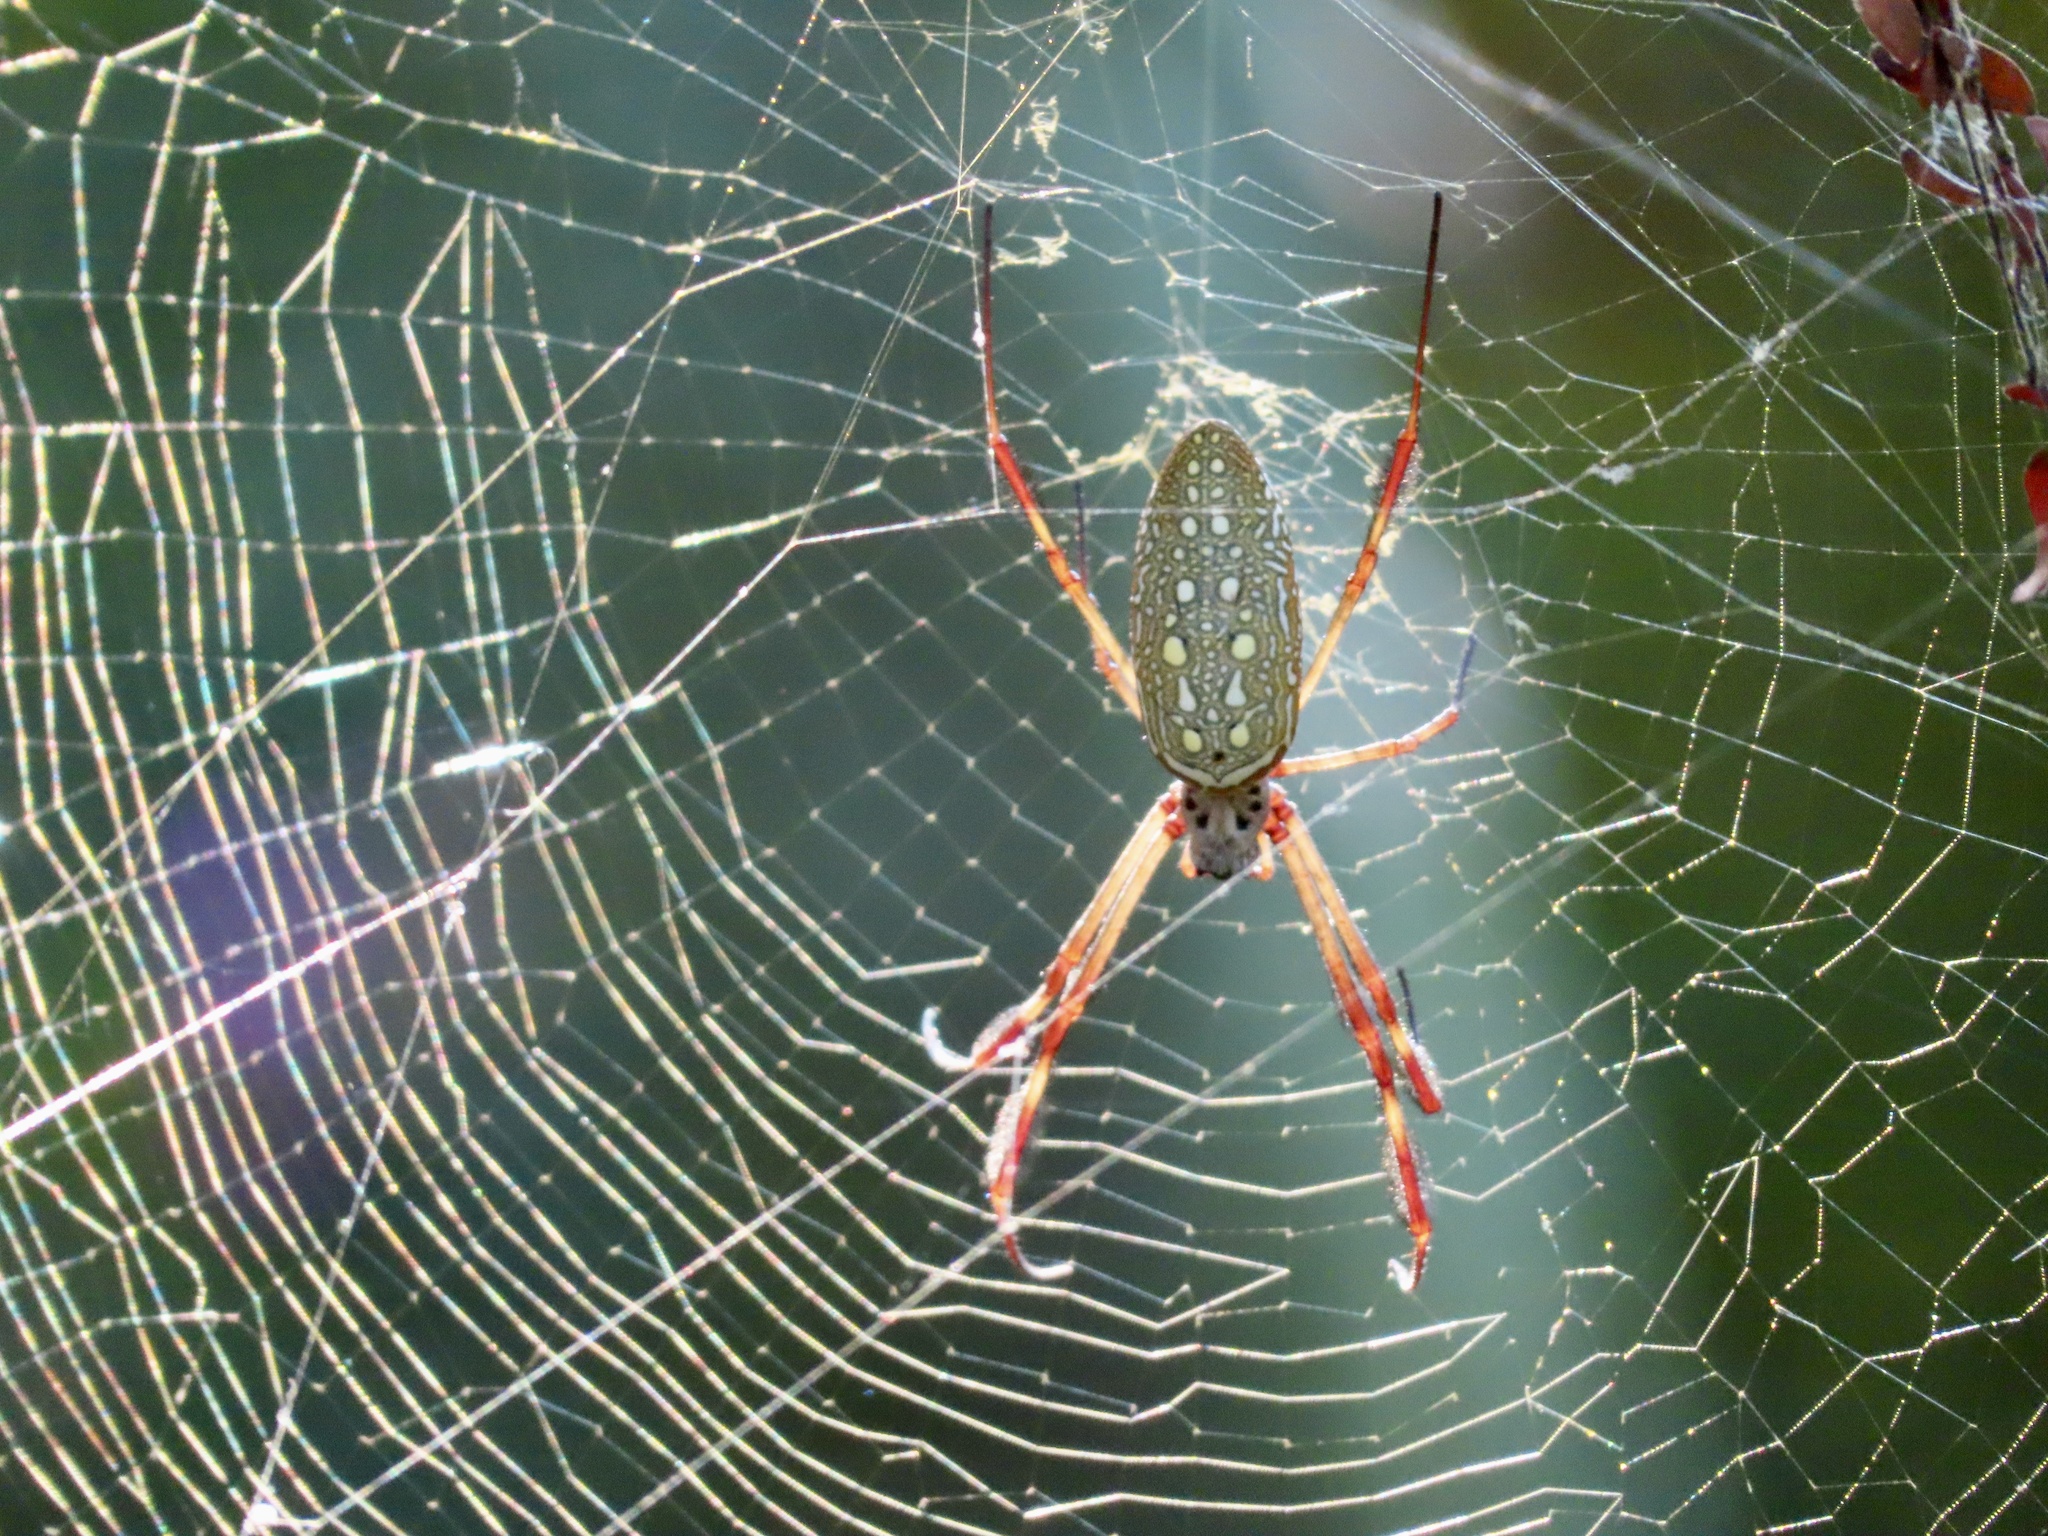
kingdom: Animalia
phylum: Arthropoda
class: Arachnida
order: Araneae
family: Araneidae
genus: Trichonephila
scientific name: Trichonephila clavipes
